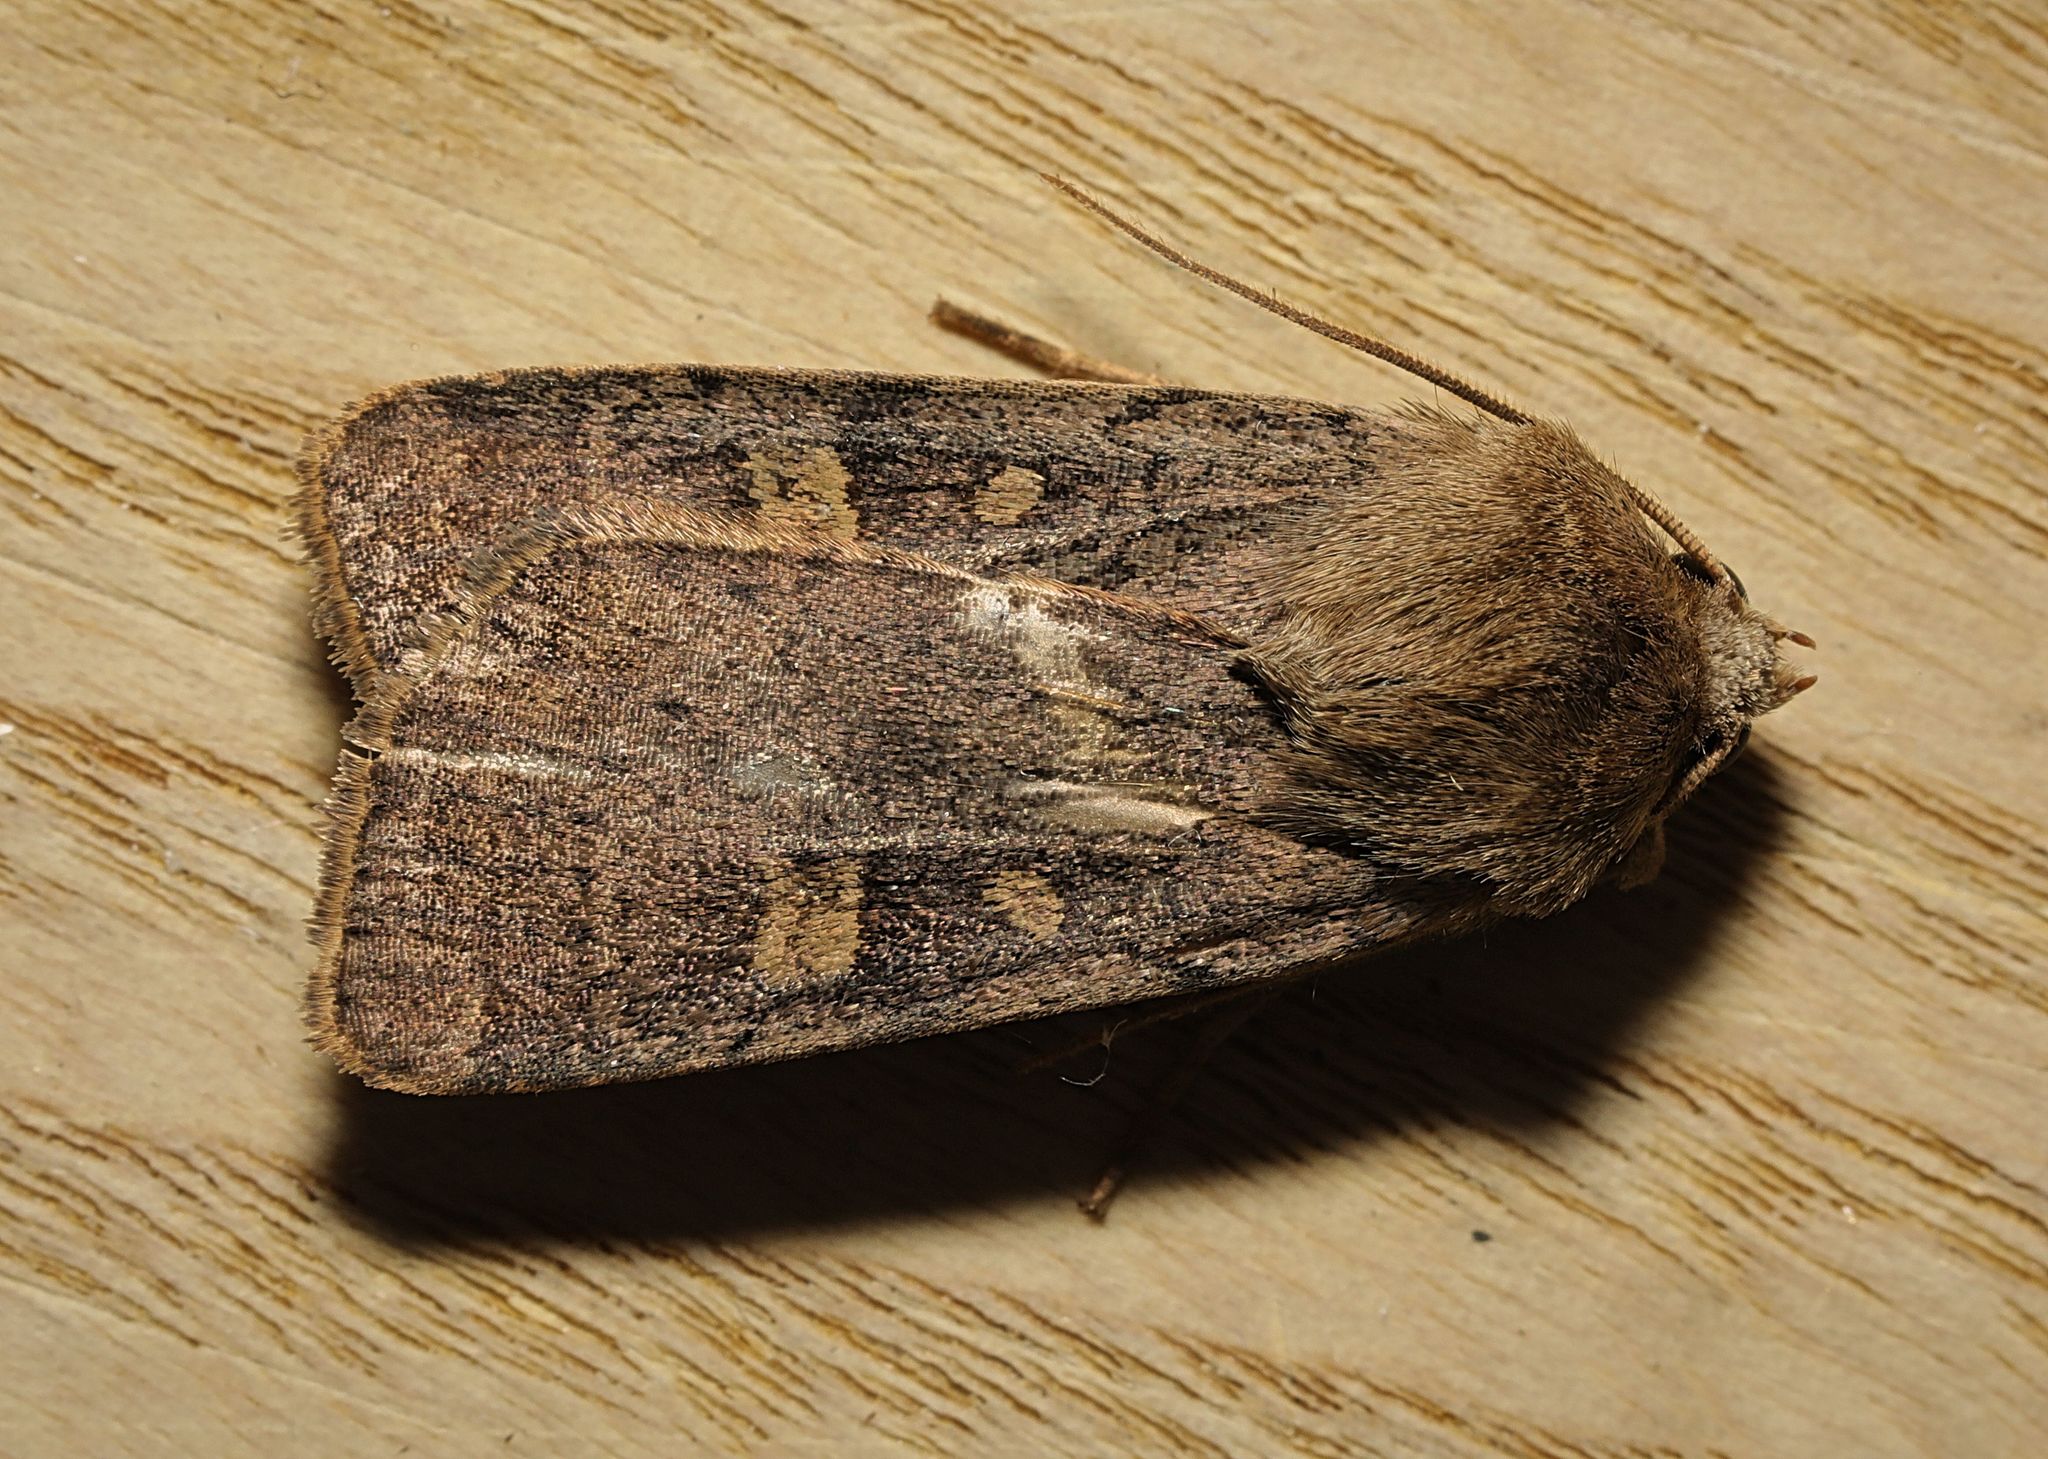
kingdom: Animalia
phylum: Arthropoda
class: Insecta
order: Lepidoptera
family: Noctuidae
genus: Xestia
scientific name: Xestia xanthographa
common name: Square-spot rustic
